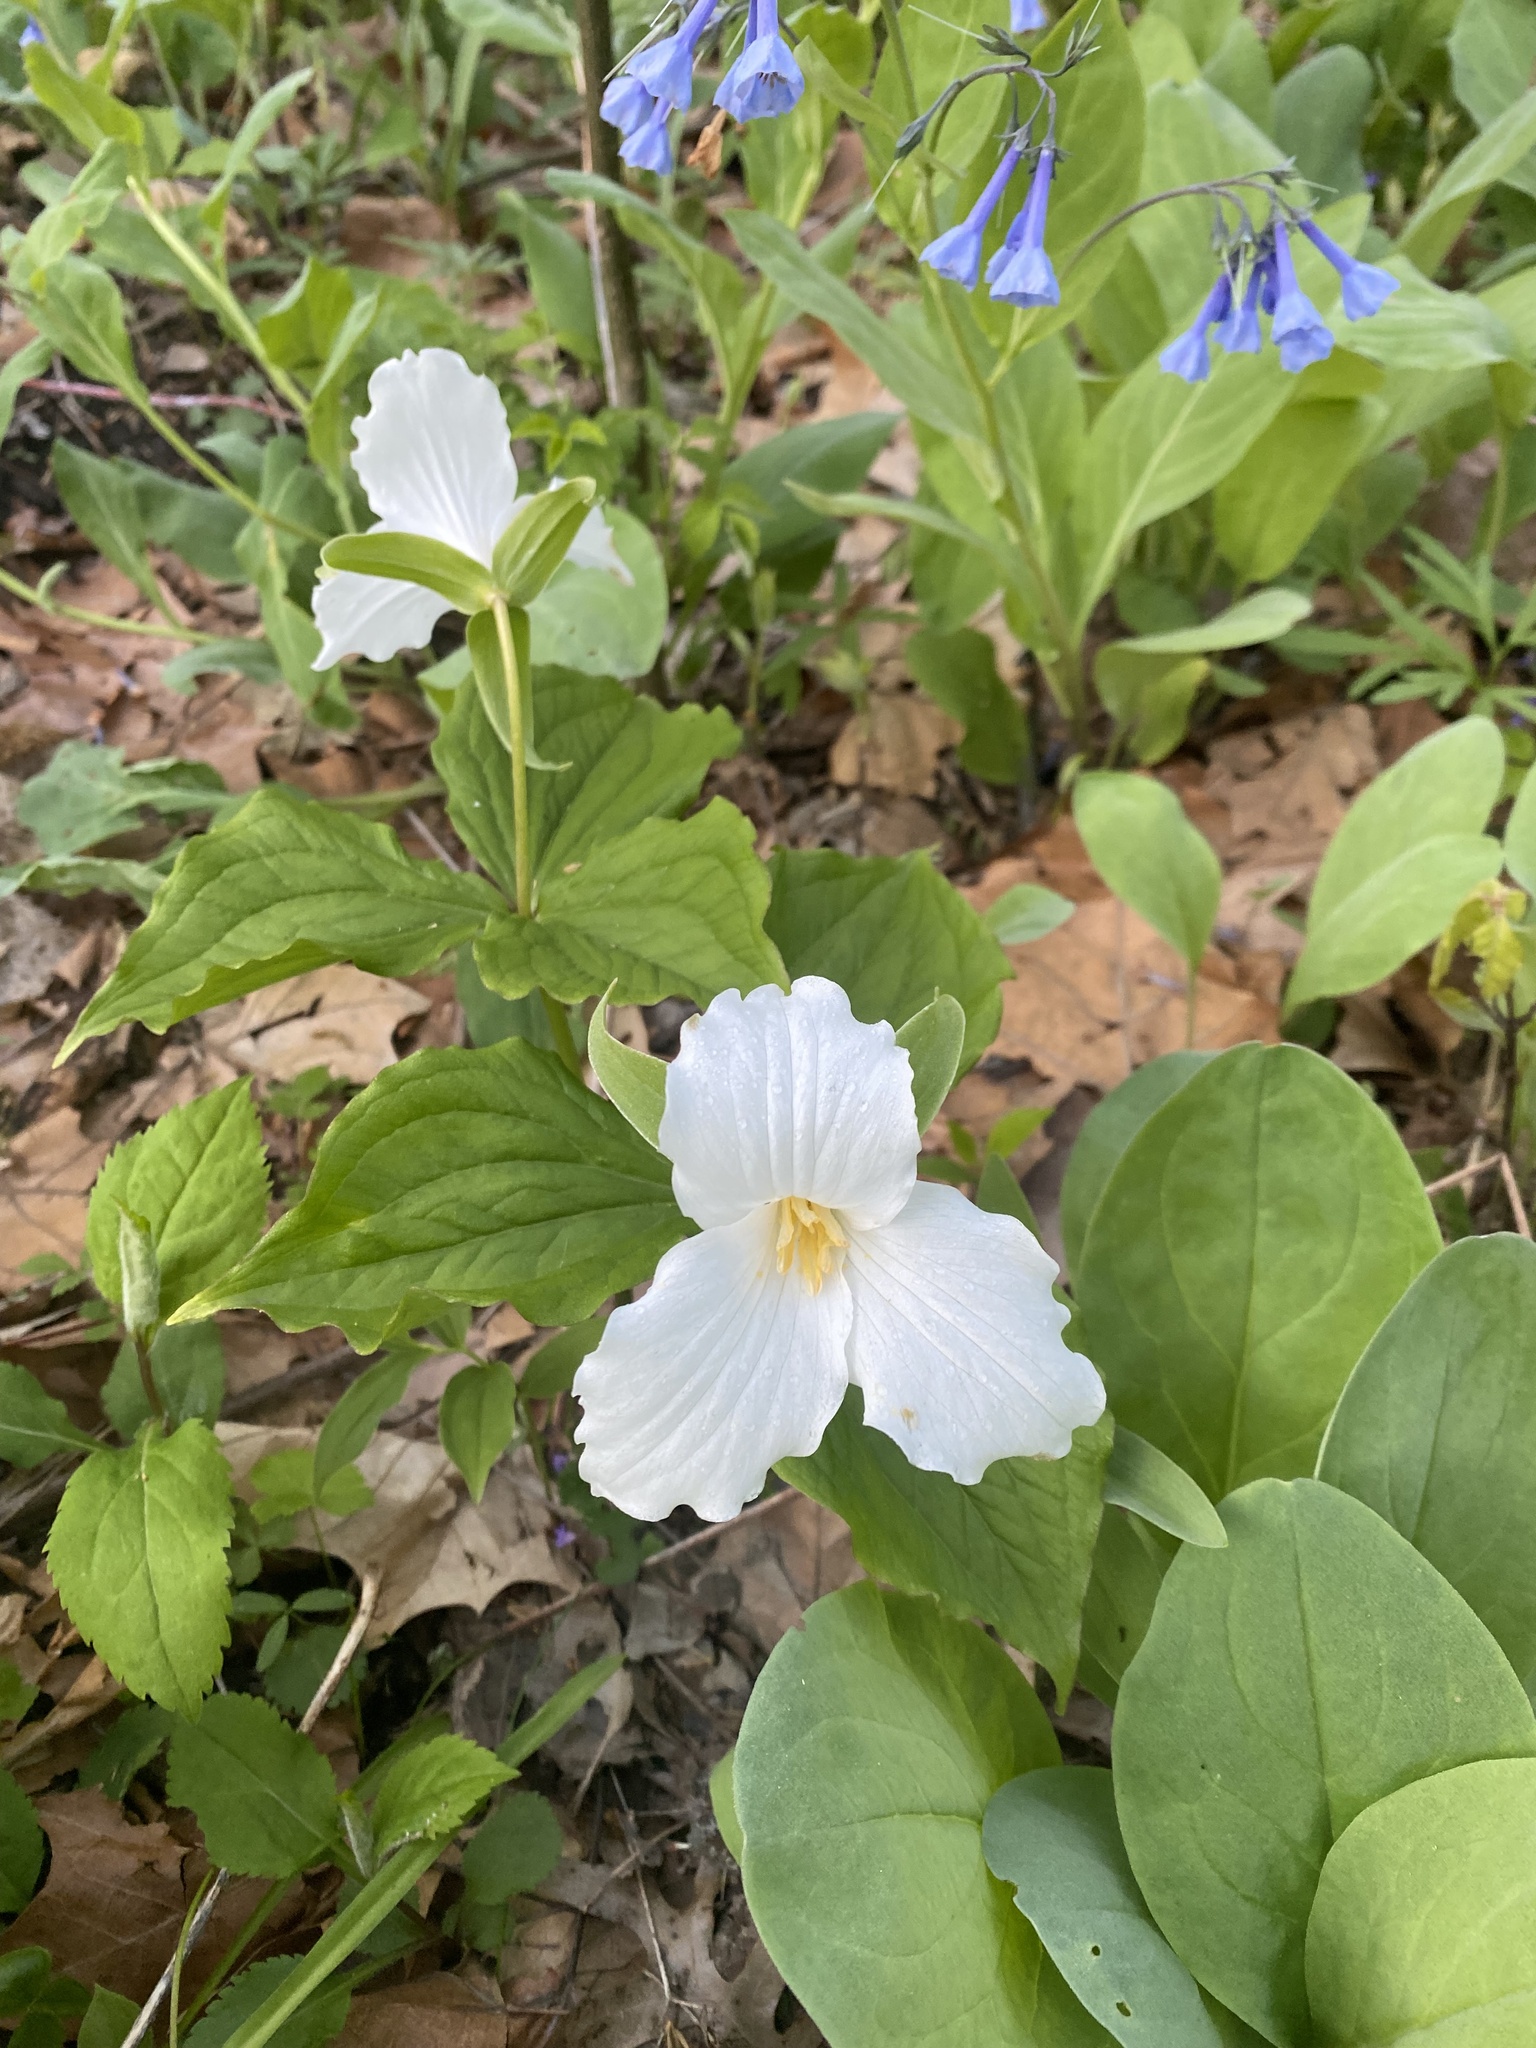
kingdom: Plantae
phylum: Tracheophyta
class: Liliopsida
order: Liliales
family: Melanthiaceae
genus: Trillium
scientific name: Trillium grandiflorum
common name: Great white trillium
